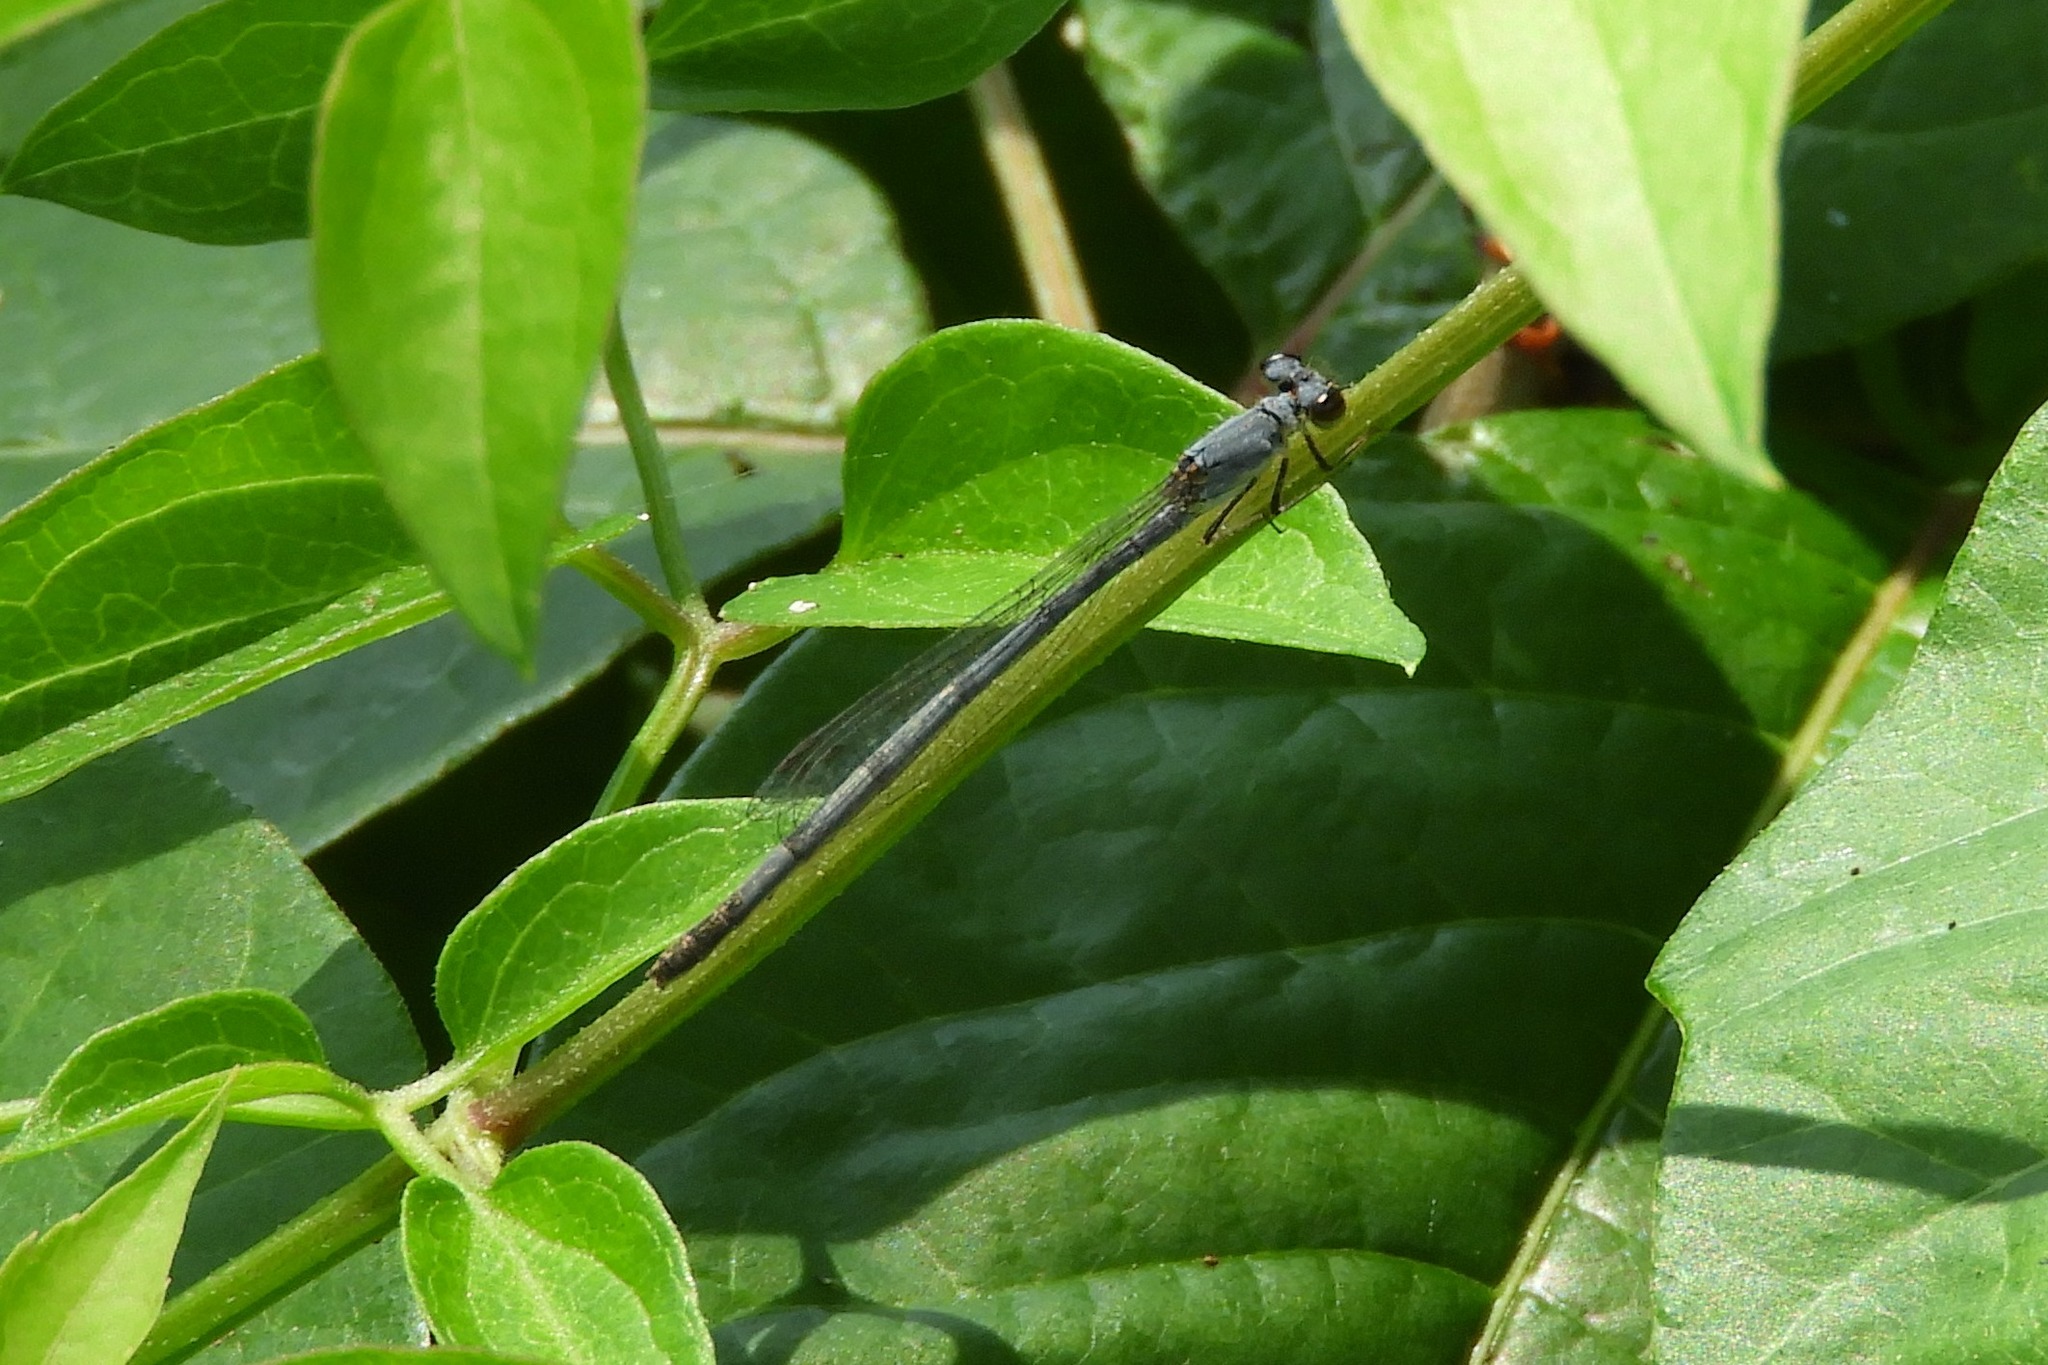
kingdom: Animalia
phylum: Arthropoda
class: Insecta
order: Odonata
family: Coenagrionidae
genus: Ischnura
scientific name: Ischnura posita
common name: Fragile forktail
